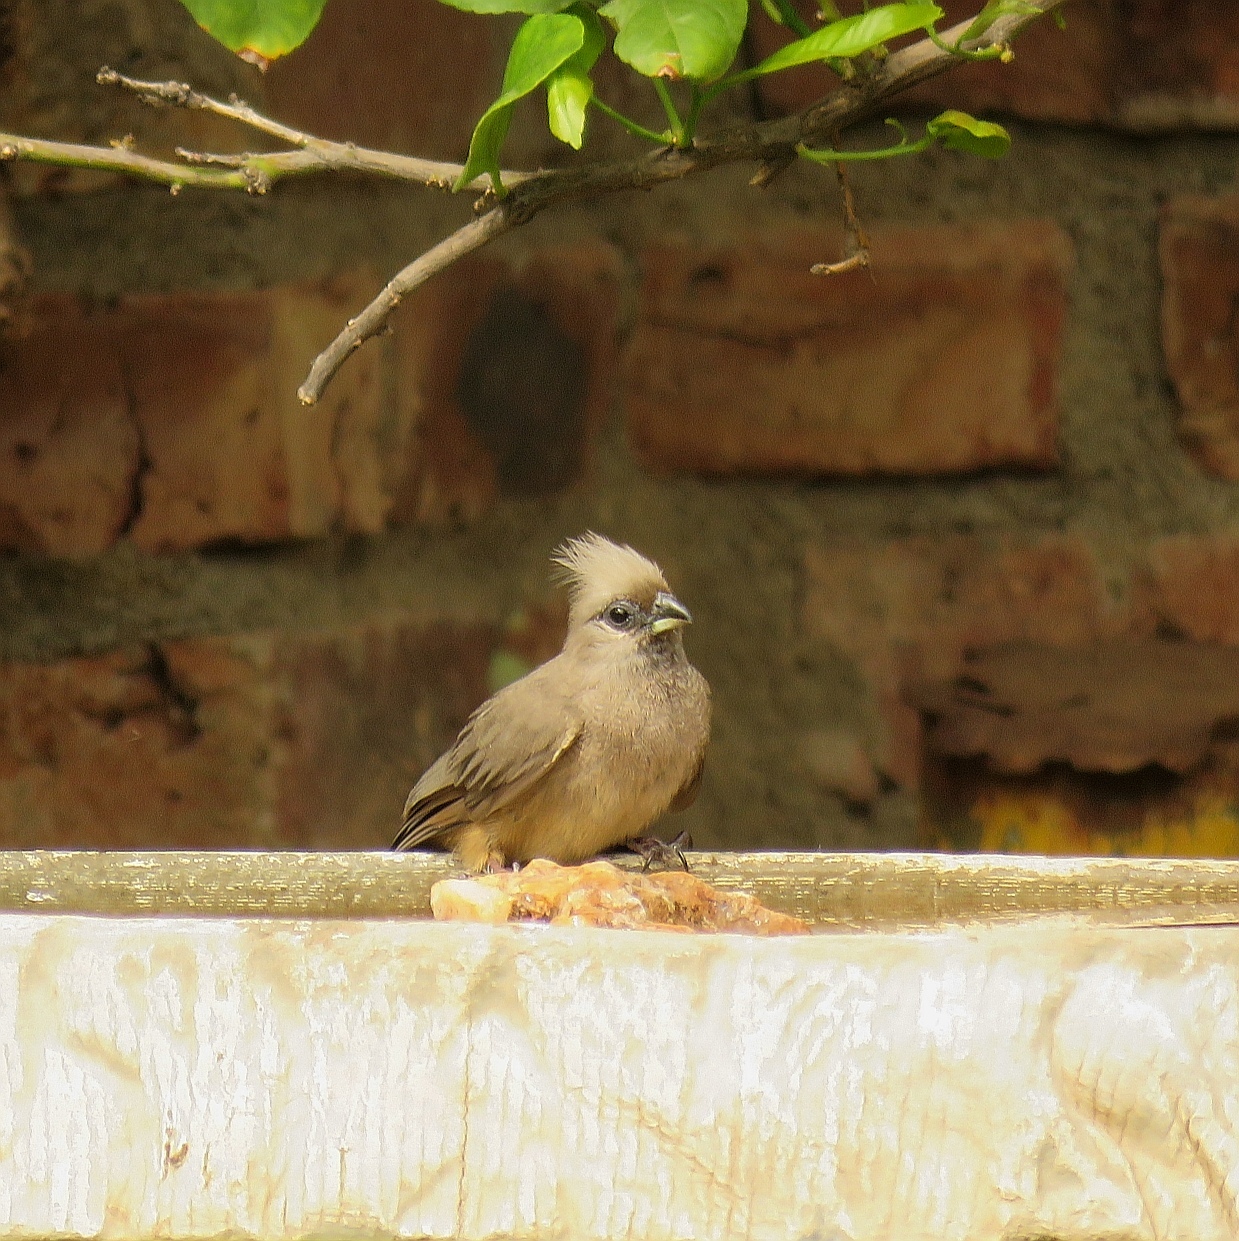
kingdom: Animalia
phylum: Chordata
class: Aves
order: Coliiformes
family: Coliidae
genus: Colius
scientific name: Colius striatus
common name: Speckled mousebird
